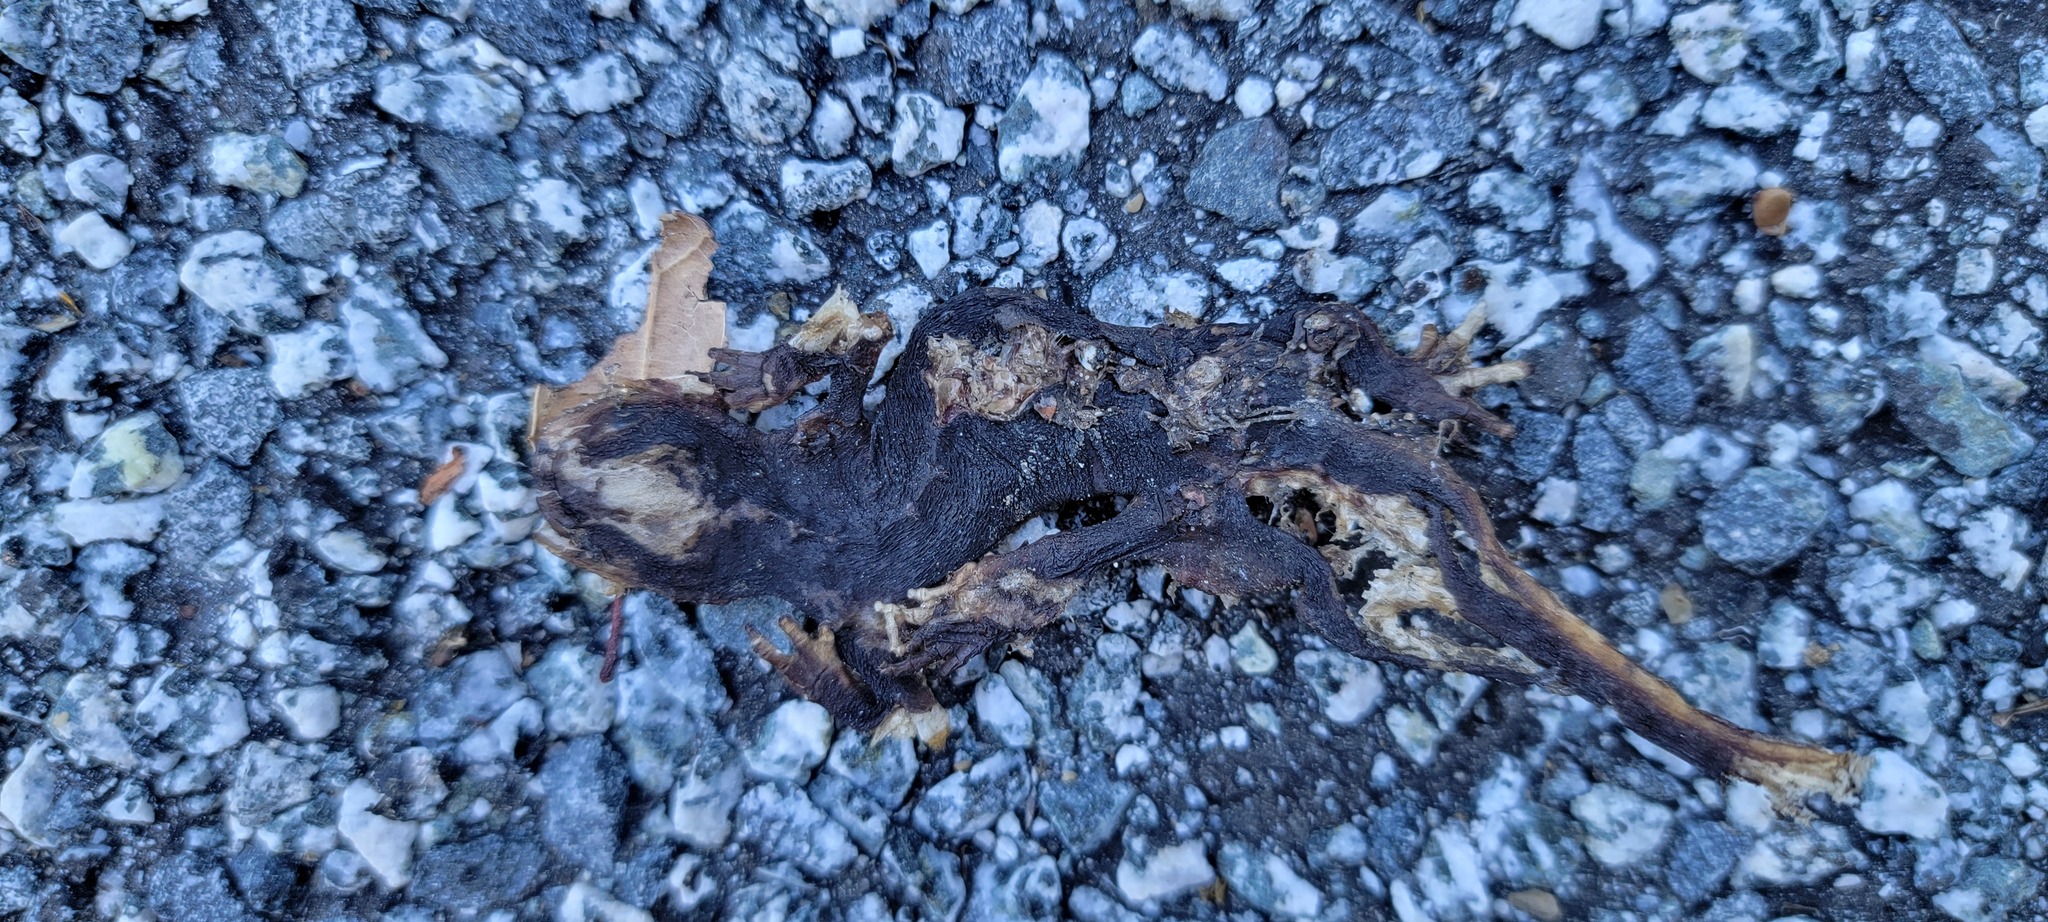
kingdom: Animalia
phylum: Chordata
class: Amphibia
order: Caudata
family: Salamandridae
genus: Taricha
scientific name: Taricha
